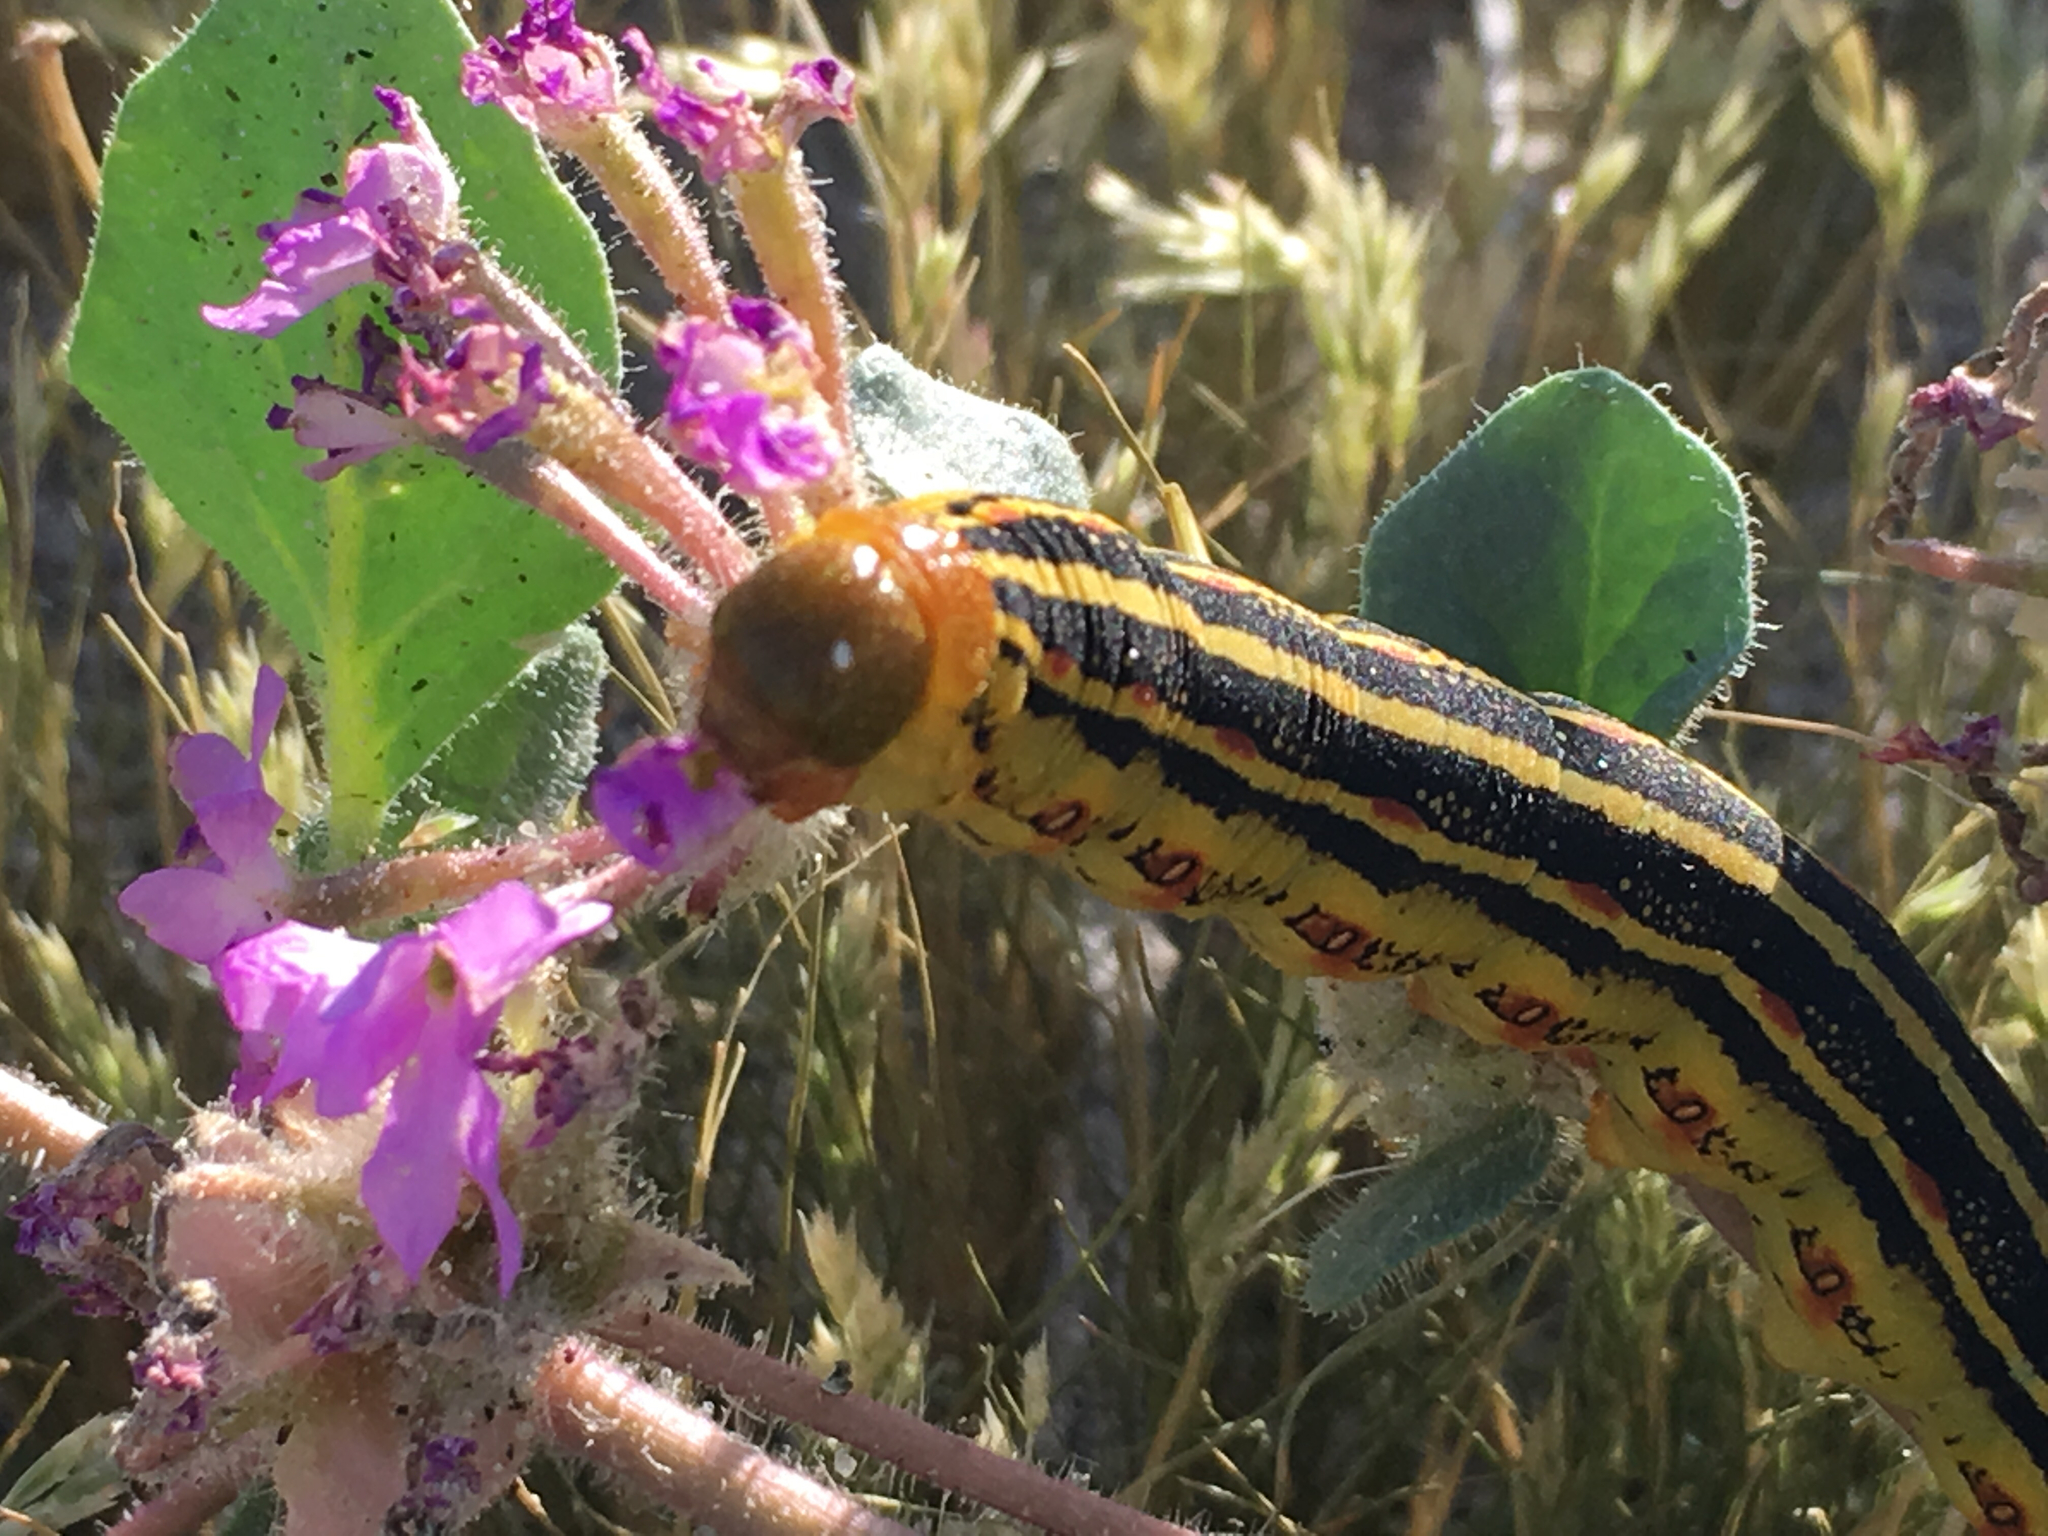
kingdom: Animalia
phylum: Arthropoda
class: Insecta
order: Lepidoptera
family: Sphingidae
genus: Hyles
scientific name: Hyles lineata
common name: White-lined sphinx
